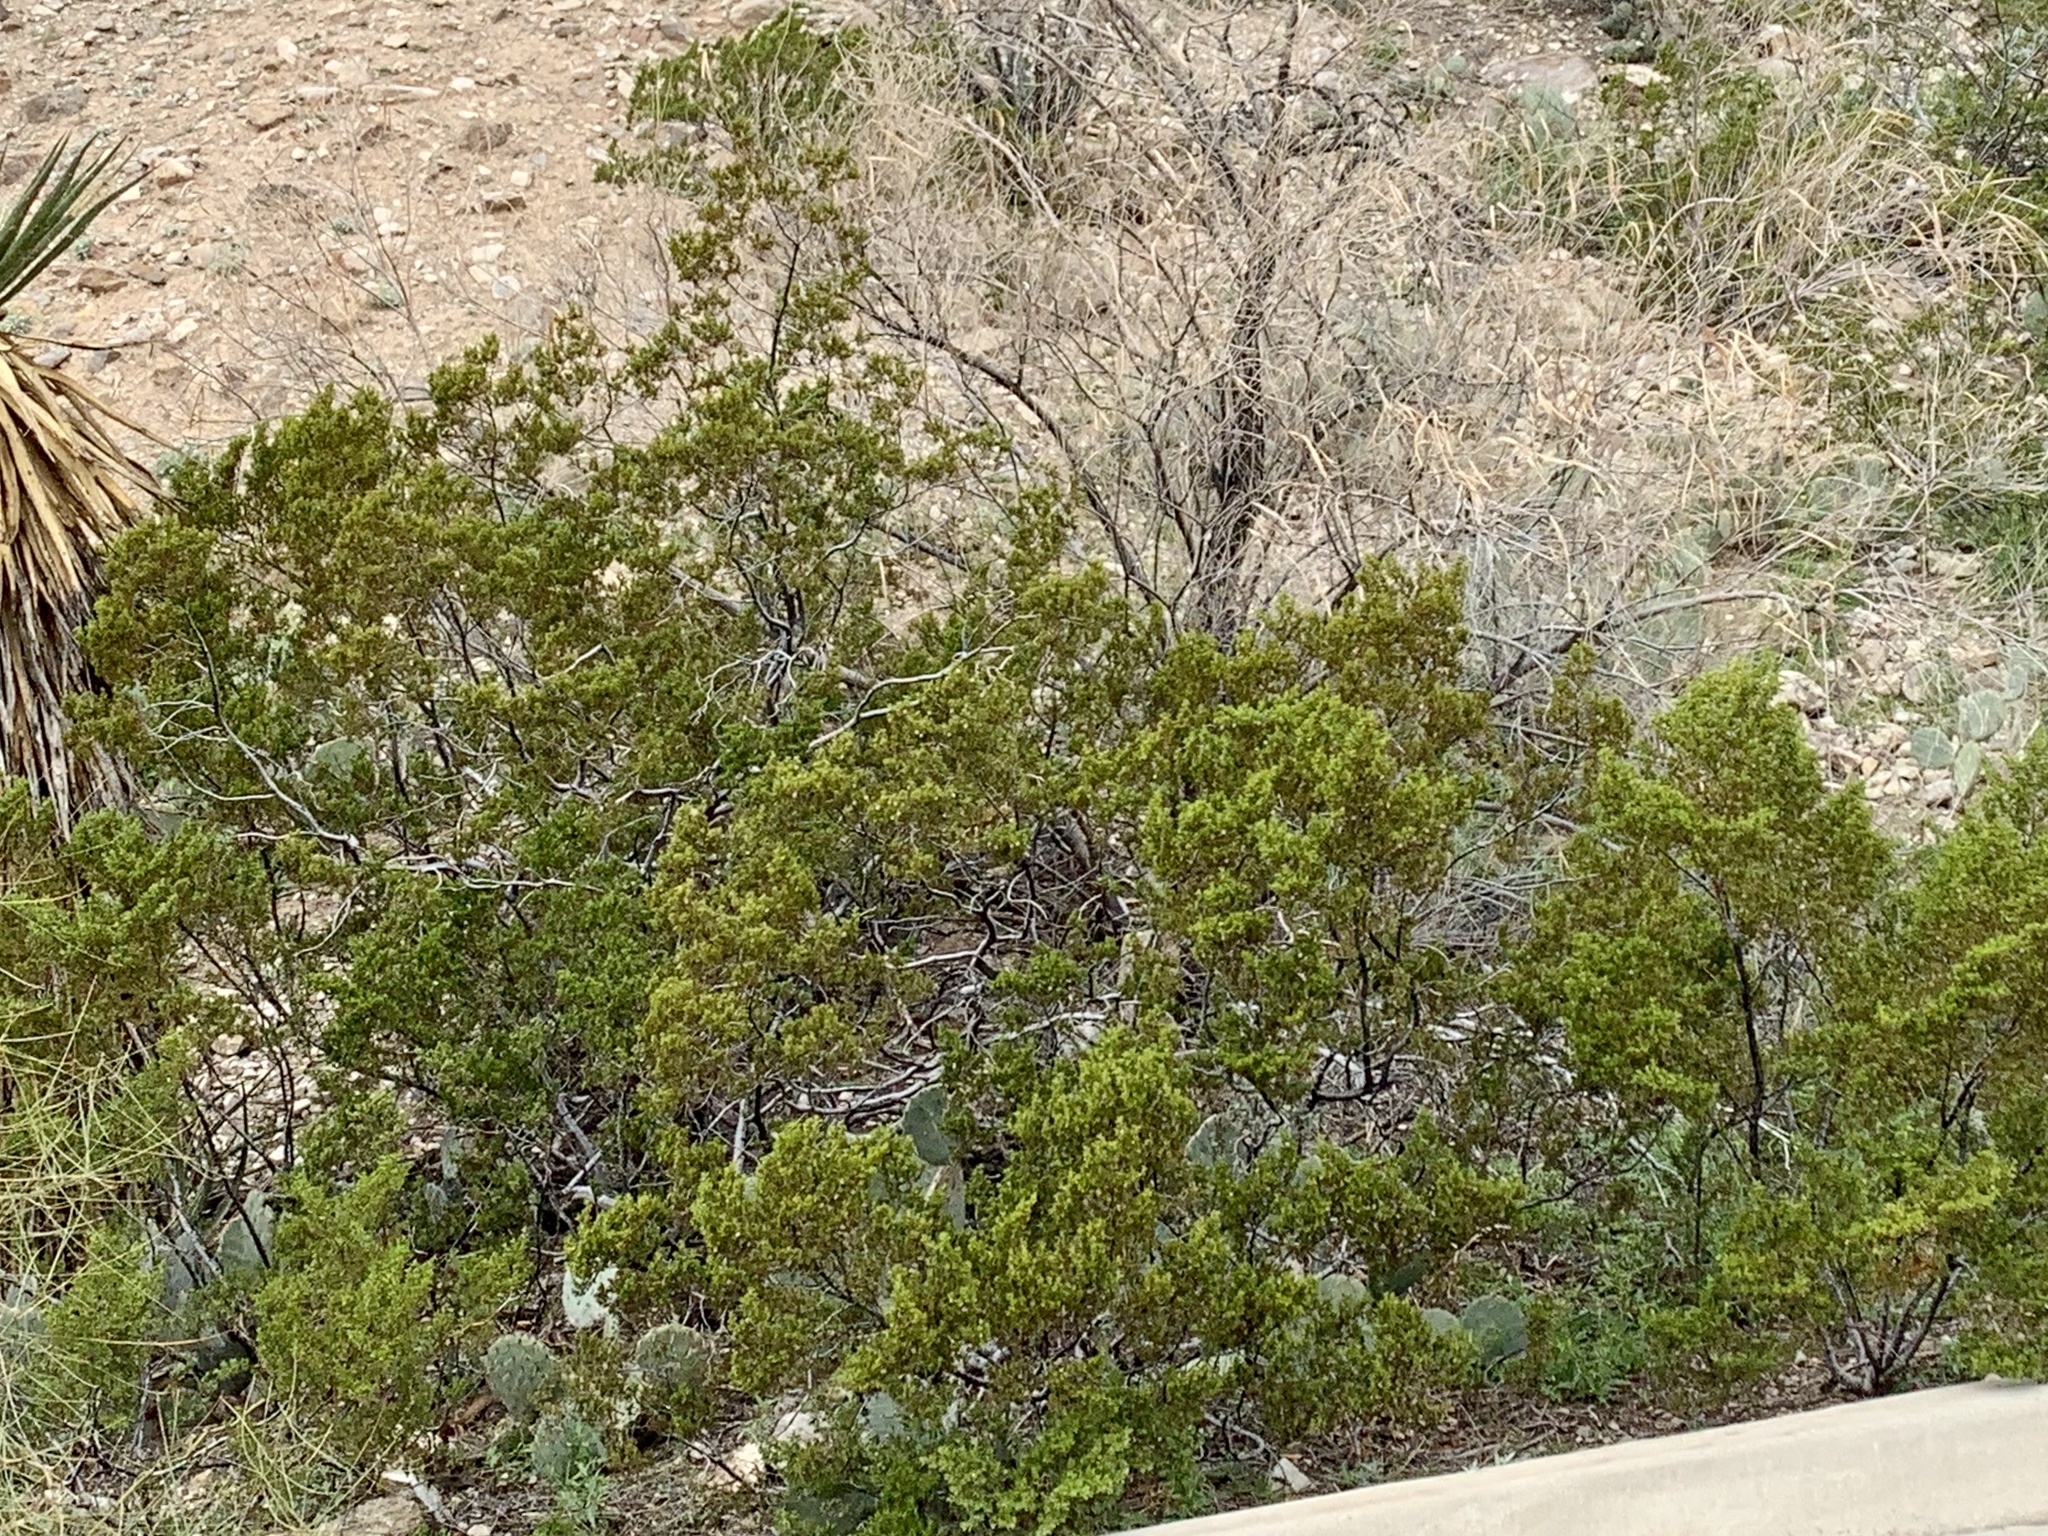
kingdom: Plantae
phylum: Tracheophyta
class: Magnoliopsida
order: Zygophyllales
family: Zygophyllaceae
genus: Larrea
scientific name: Larrea tridentata
